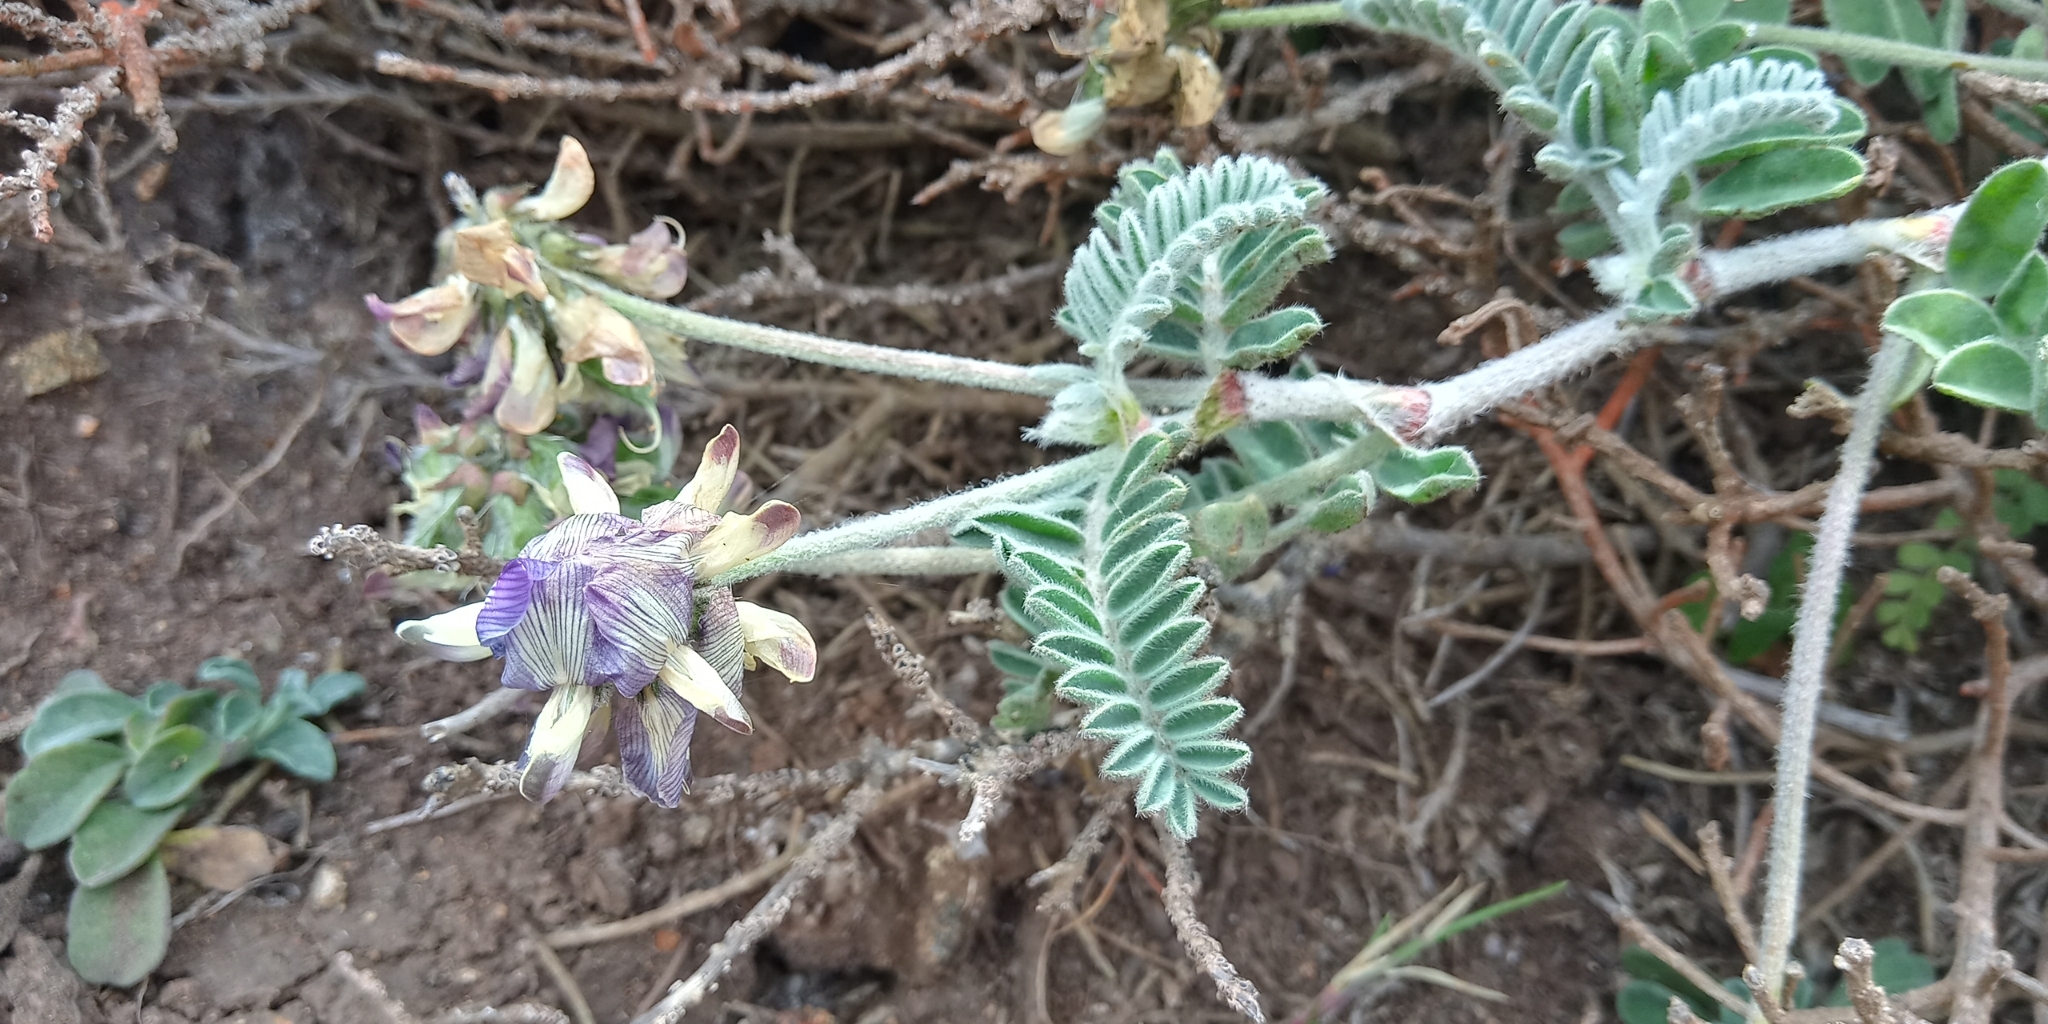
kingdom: Plantae
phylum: Tracheophyta
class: Magnoliopsida
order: Fabales
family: Fabaceae
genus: Astragalus
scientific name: Astragalus amatus
